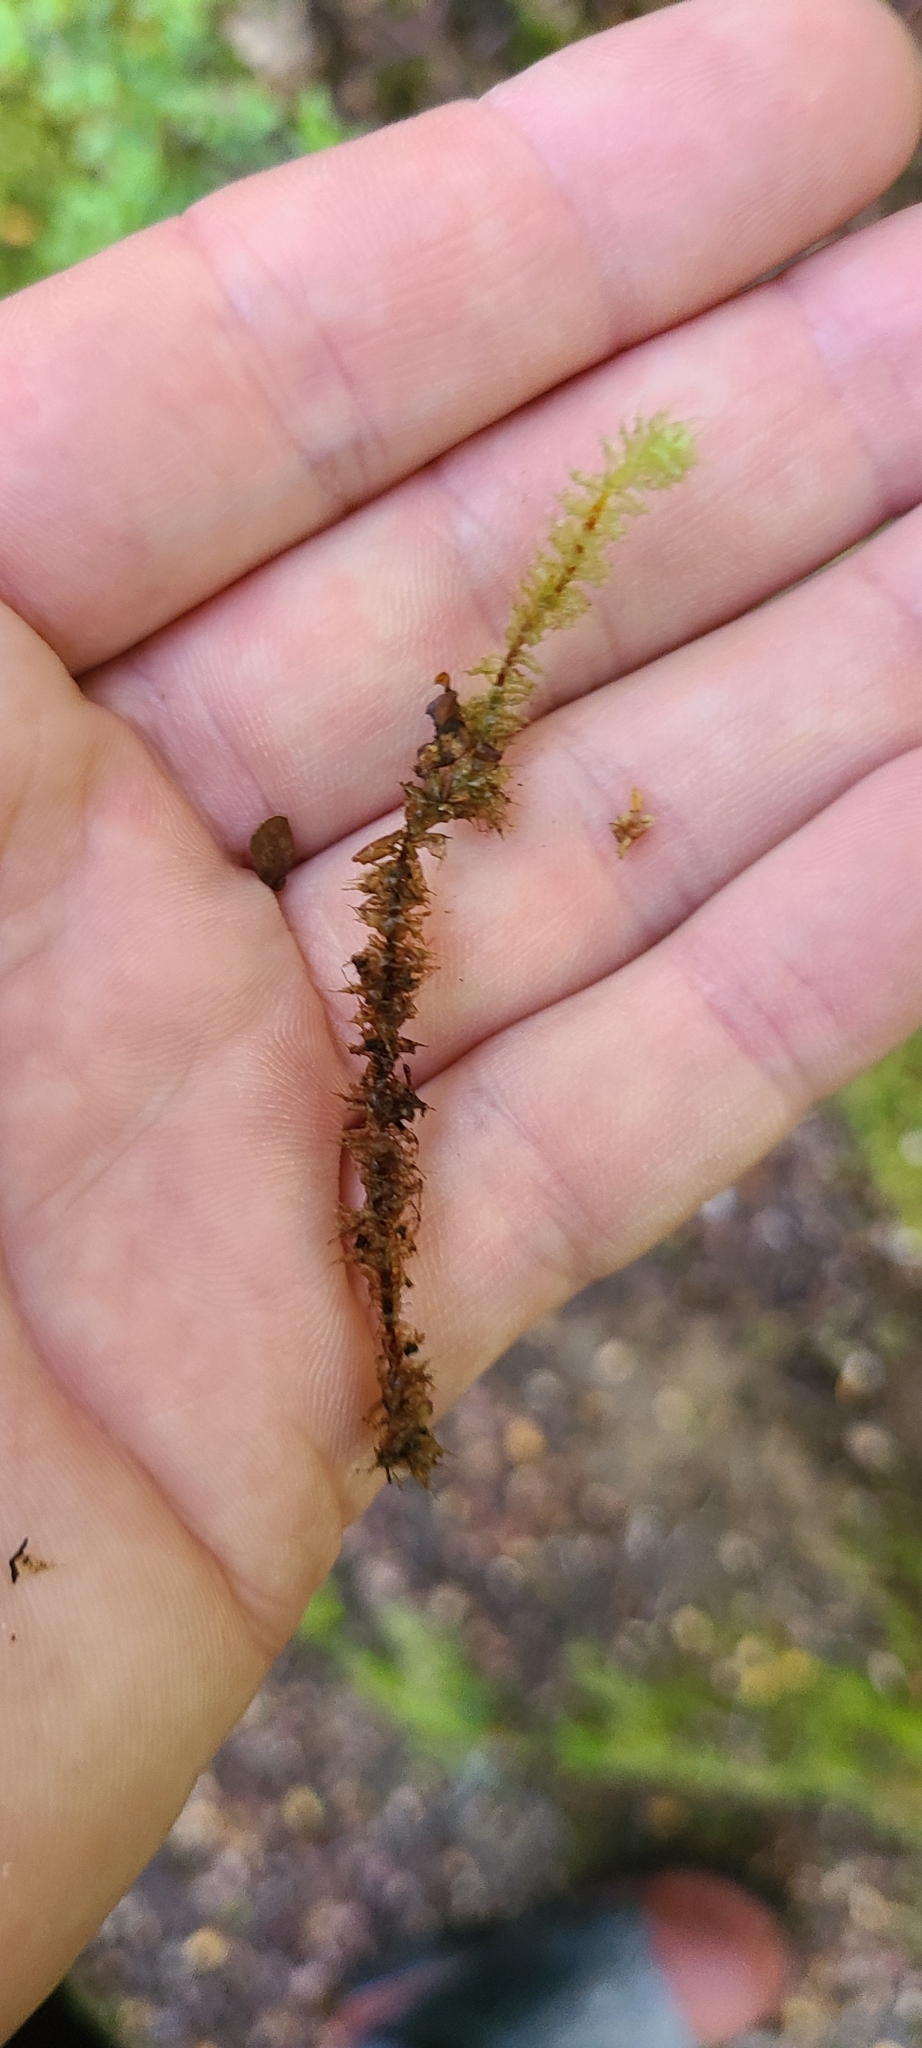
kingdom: Plantae
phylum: Bryophyta
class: Bryopsida
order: Ptychomniales
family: Ptychomniaceae
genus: Ptychomnion
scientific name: Ptychomnion aciculare
